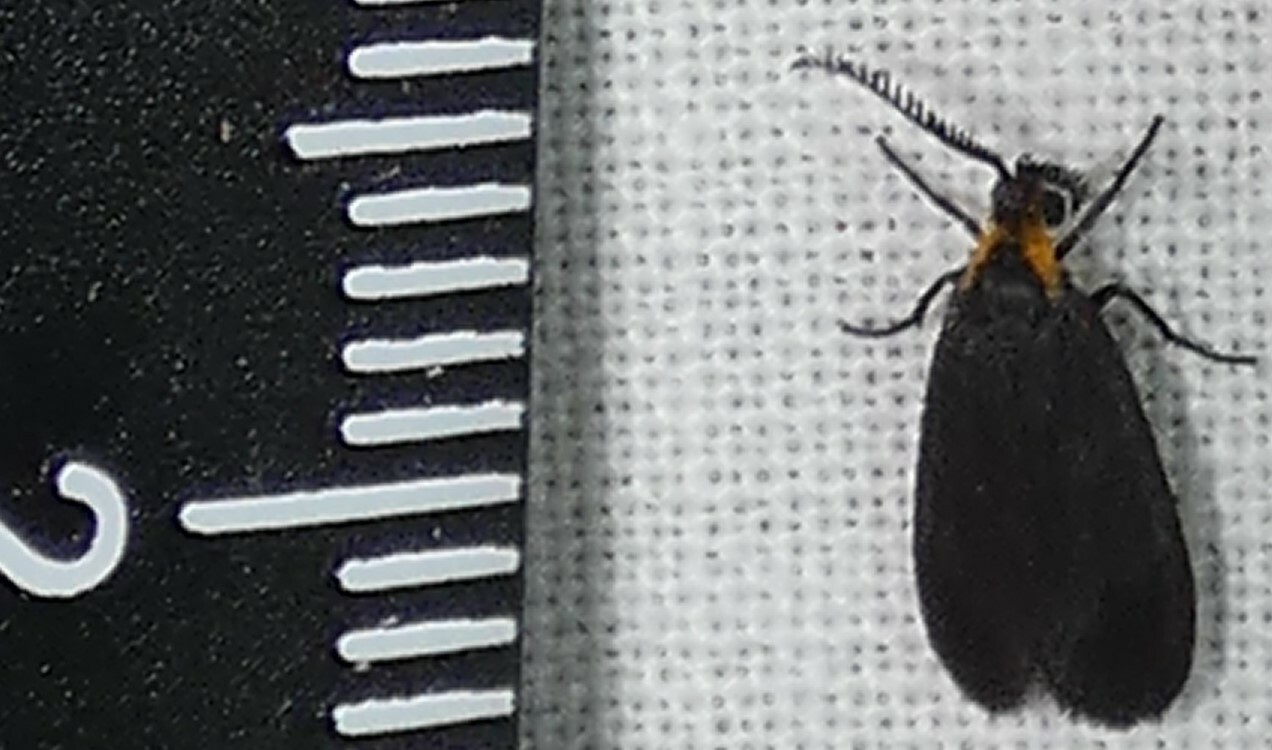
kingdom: Animalia
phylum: Arthropoda
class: Insecta
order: Lepidoptera
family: Zygaenidae
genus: Acoloithus
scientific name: Acoloithus falsarius
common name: Clemens' false skeletonizer
